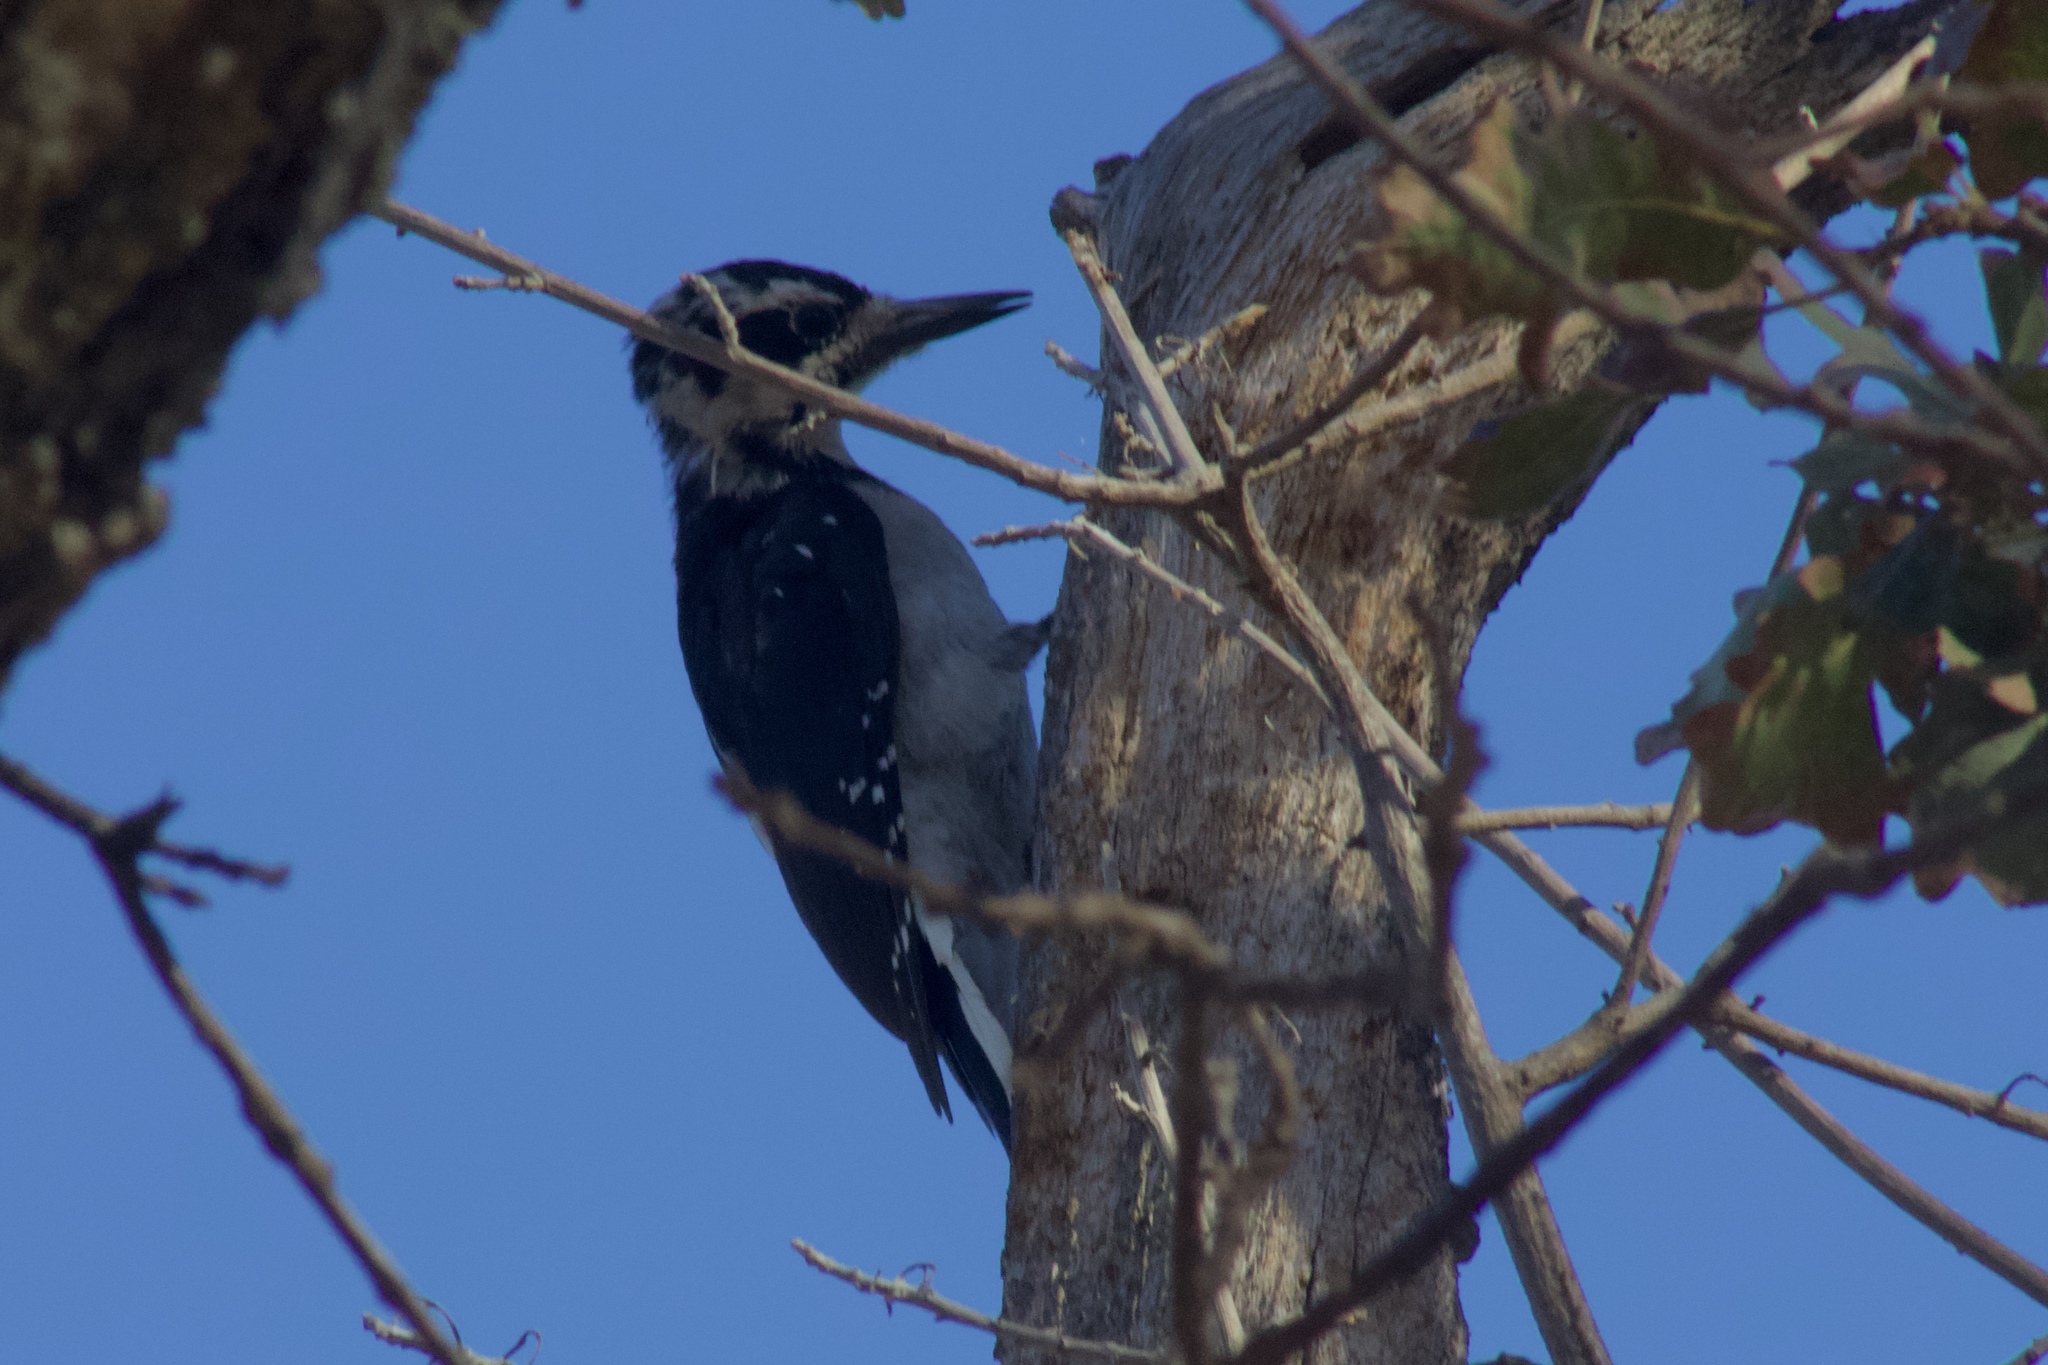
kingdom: Animalia
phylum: Chordata
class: Aves
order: Piciformes
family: Picidae
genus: Leuconotopicus
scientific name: Leuconotopicus villosus
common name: Hairy woodpecker
